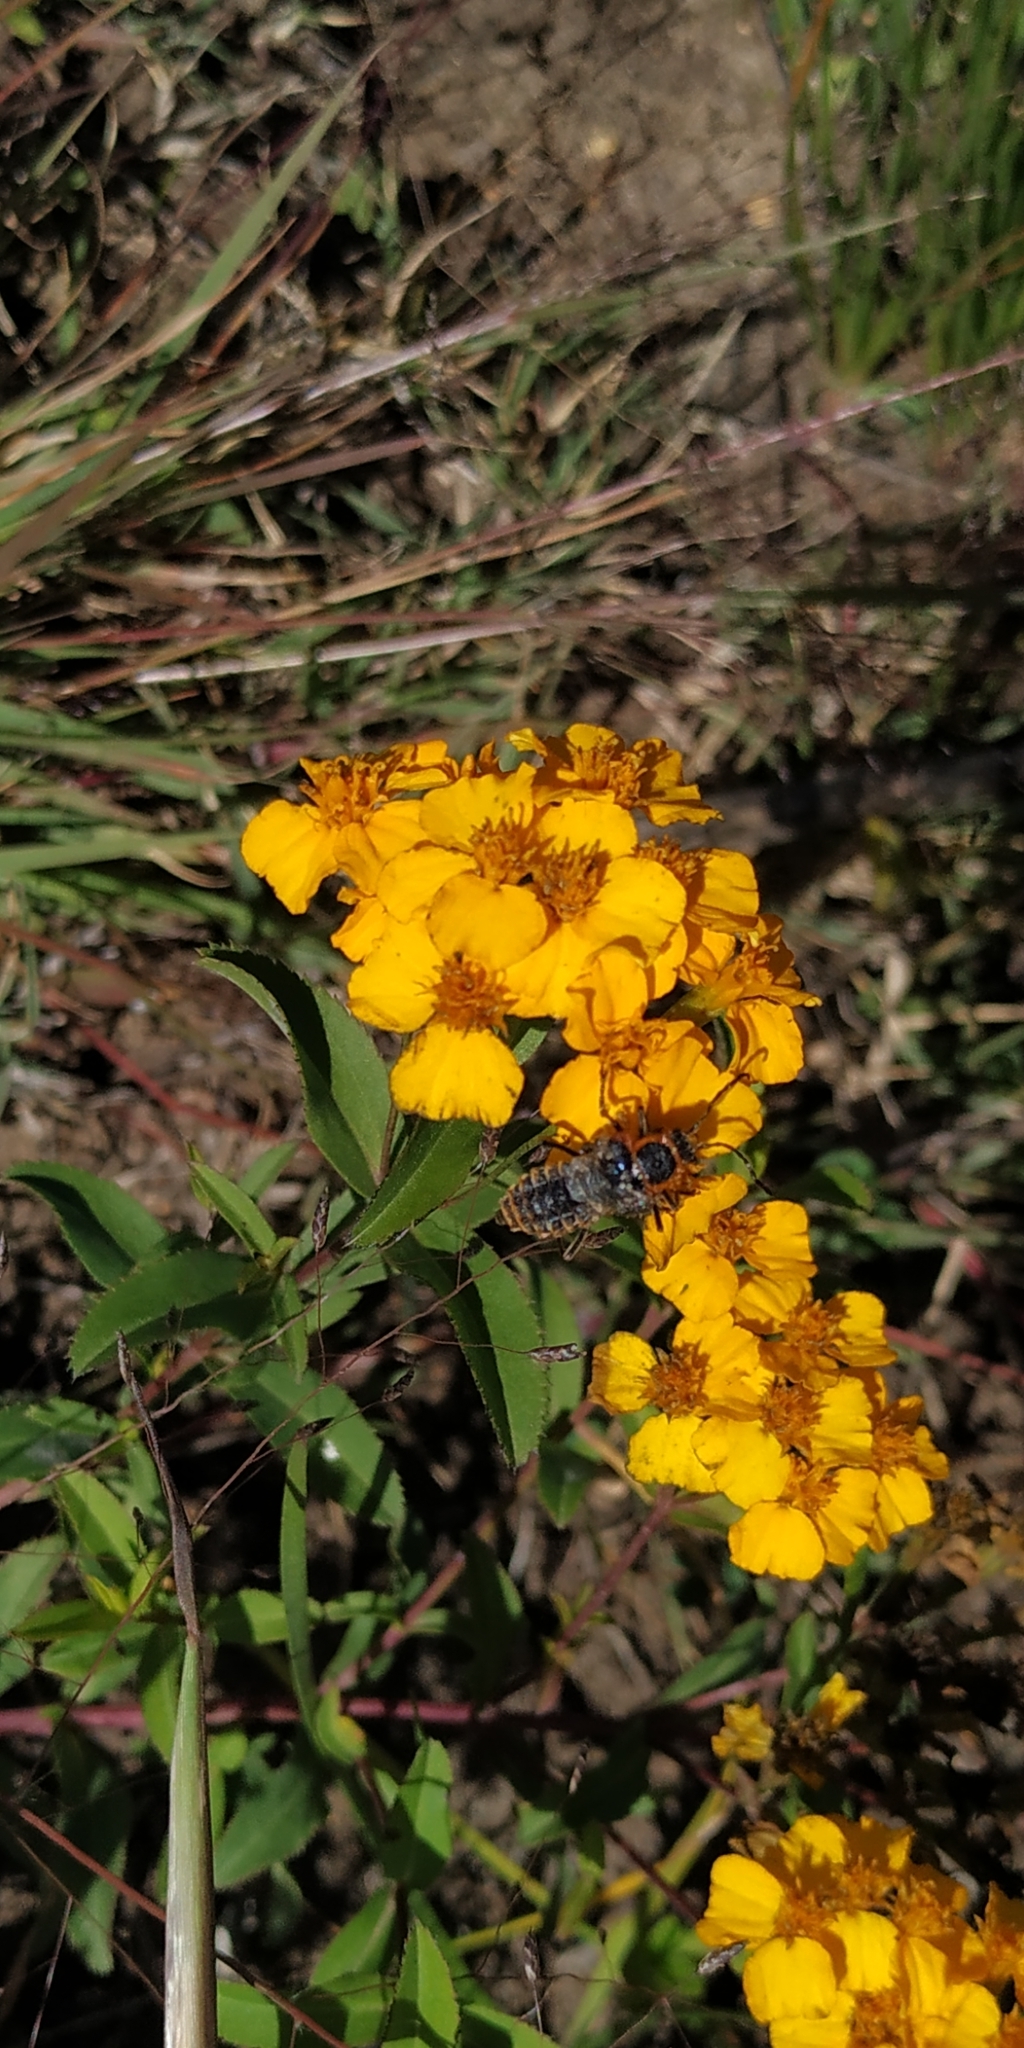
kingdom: Animalia
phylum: Arthropoda
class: Insecta
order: Coleoptera
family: Cantharidae
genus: Chauliognathus
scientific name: Chauliognathus
